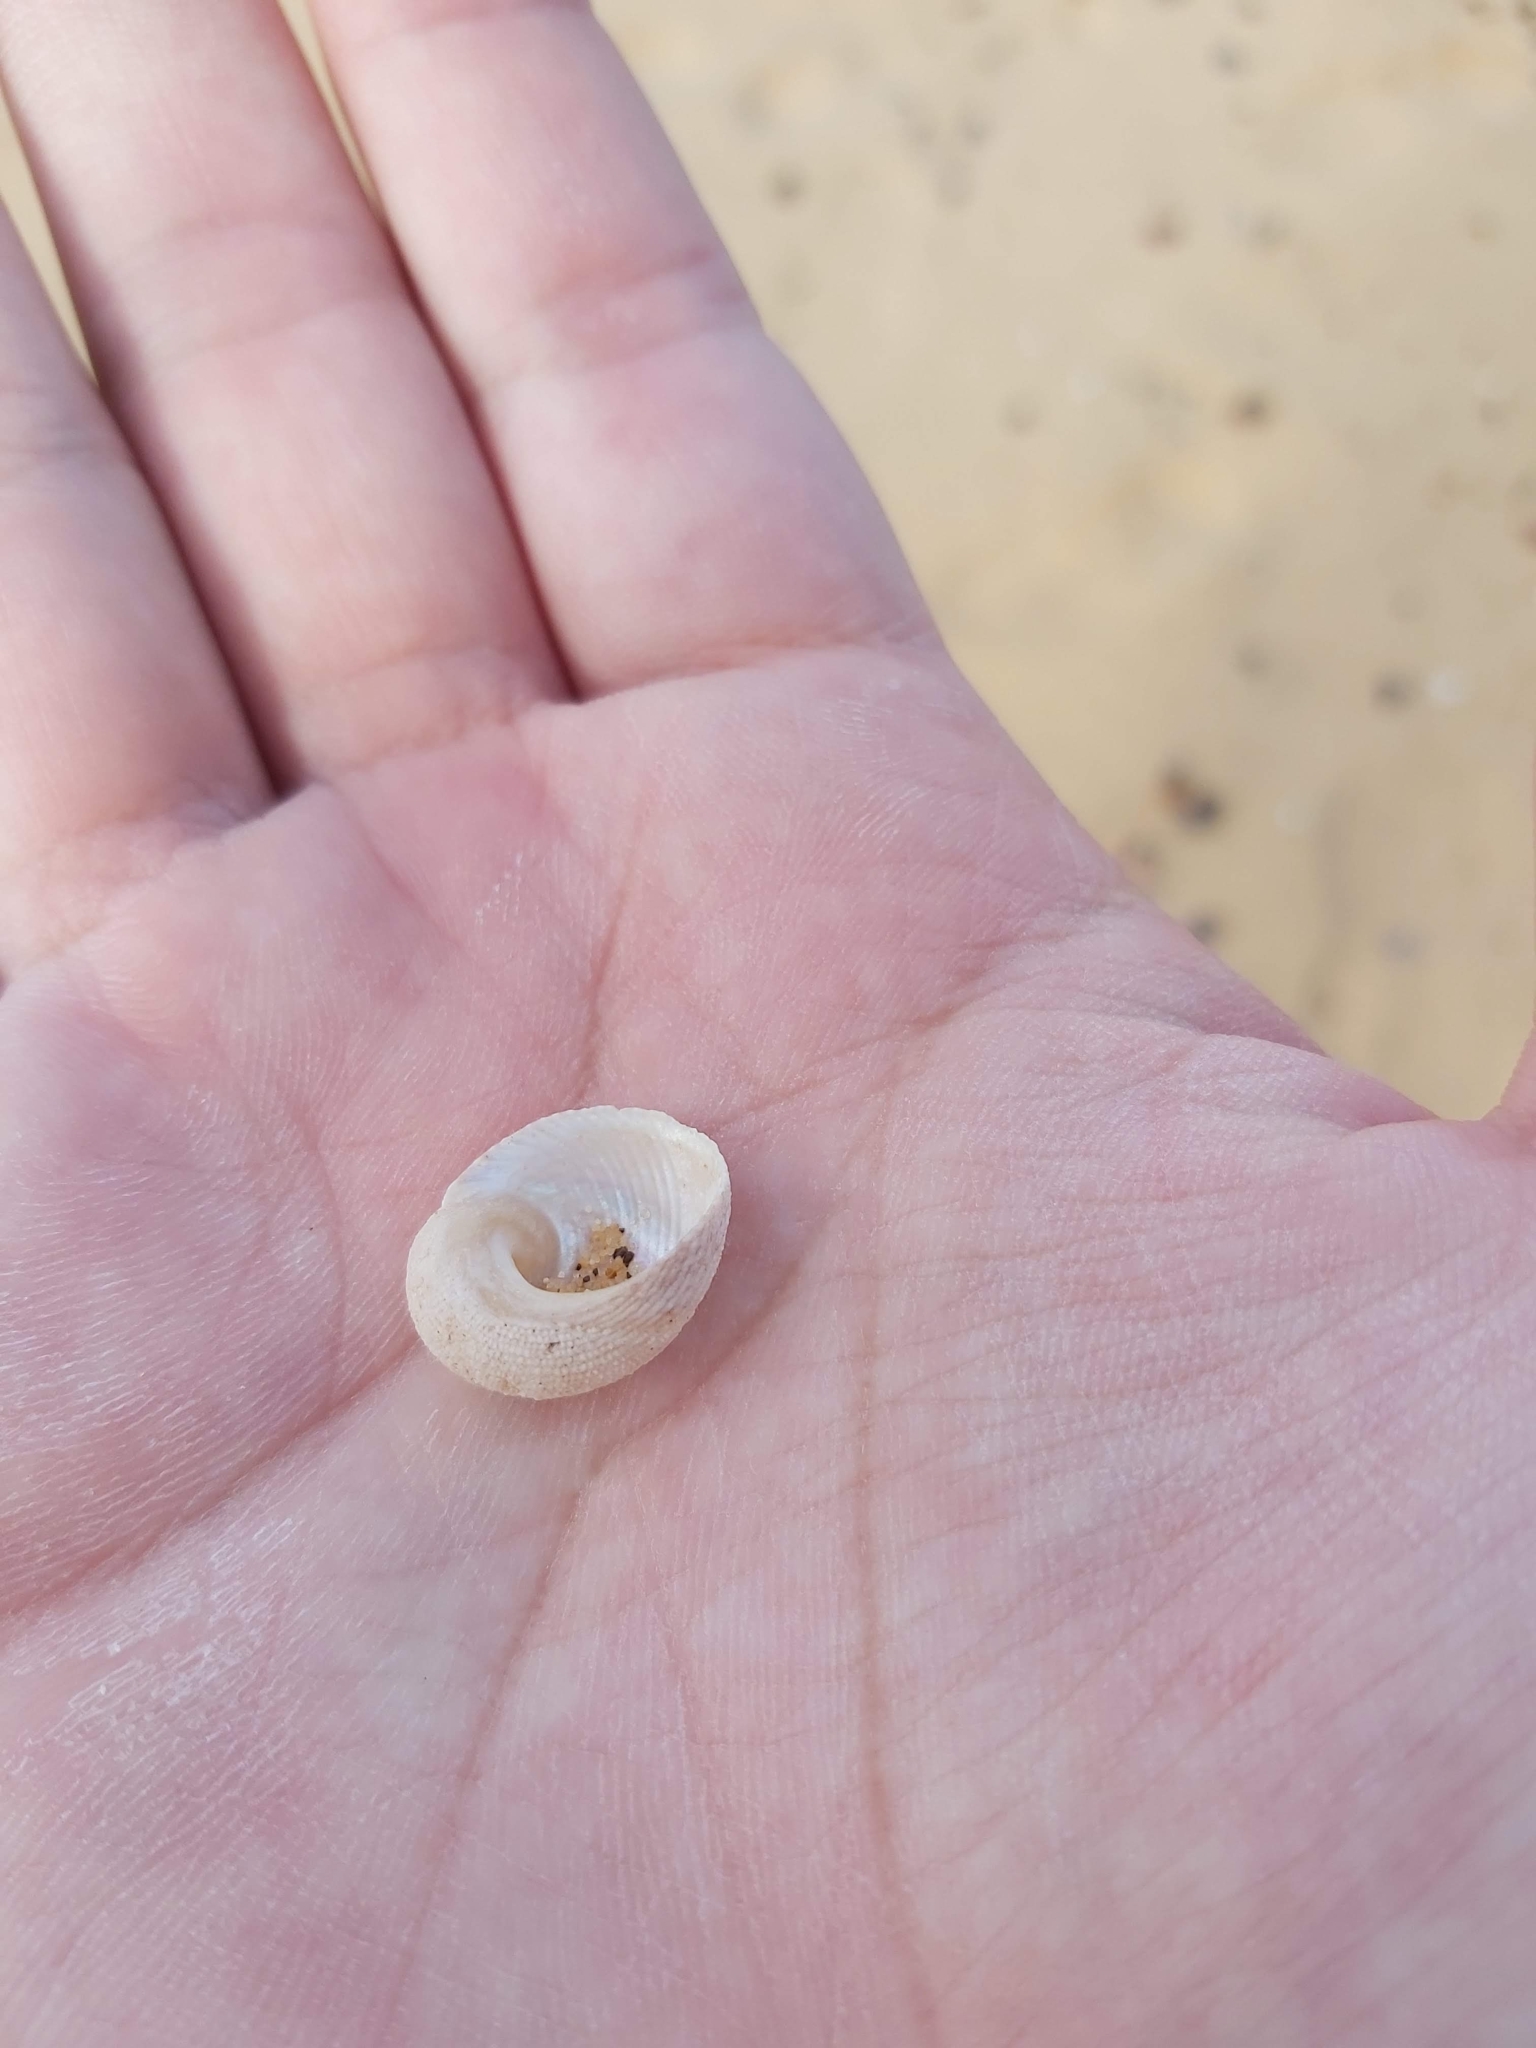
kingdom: Animalia
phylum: Mollusca
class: Gastropoda
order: Seguenziida
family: Chilodontaidae
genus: Granata
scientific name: Granata imbricata
